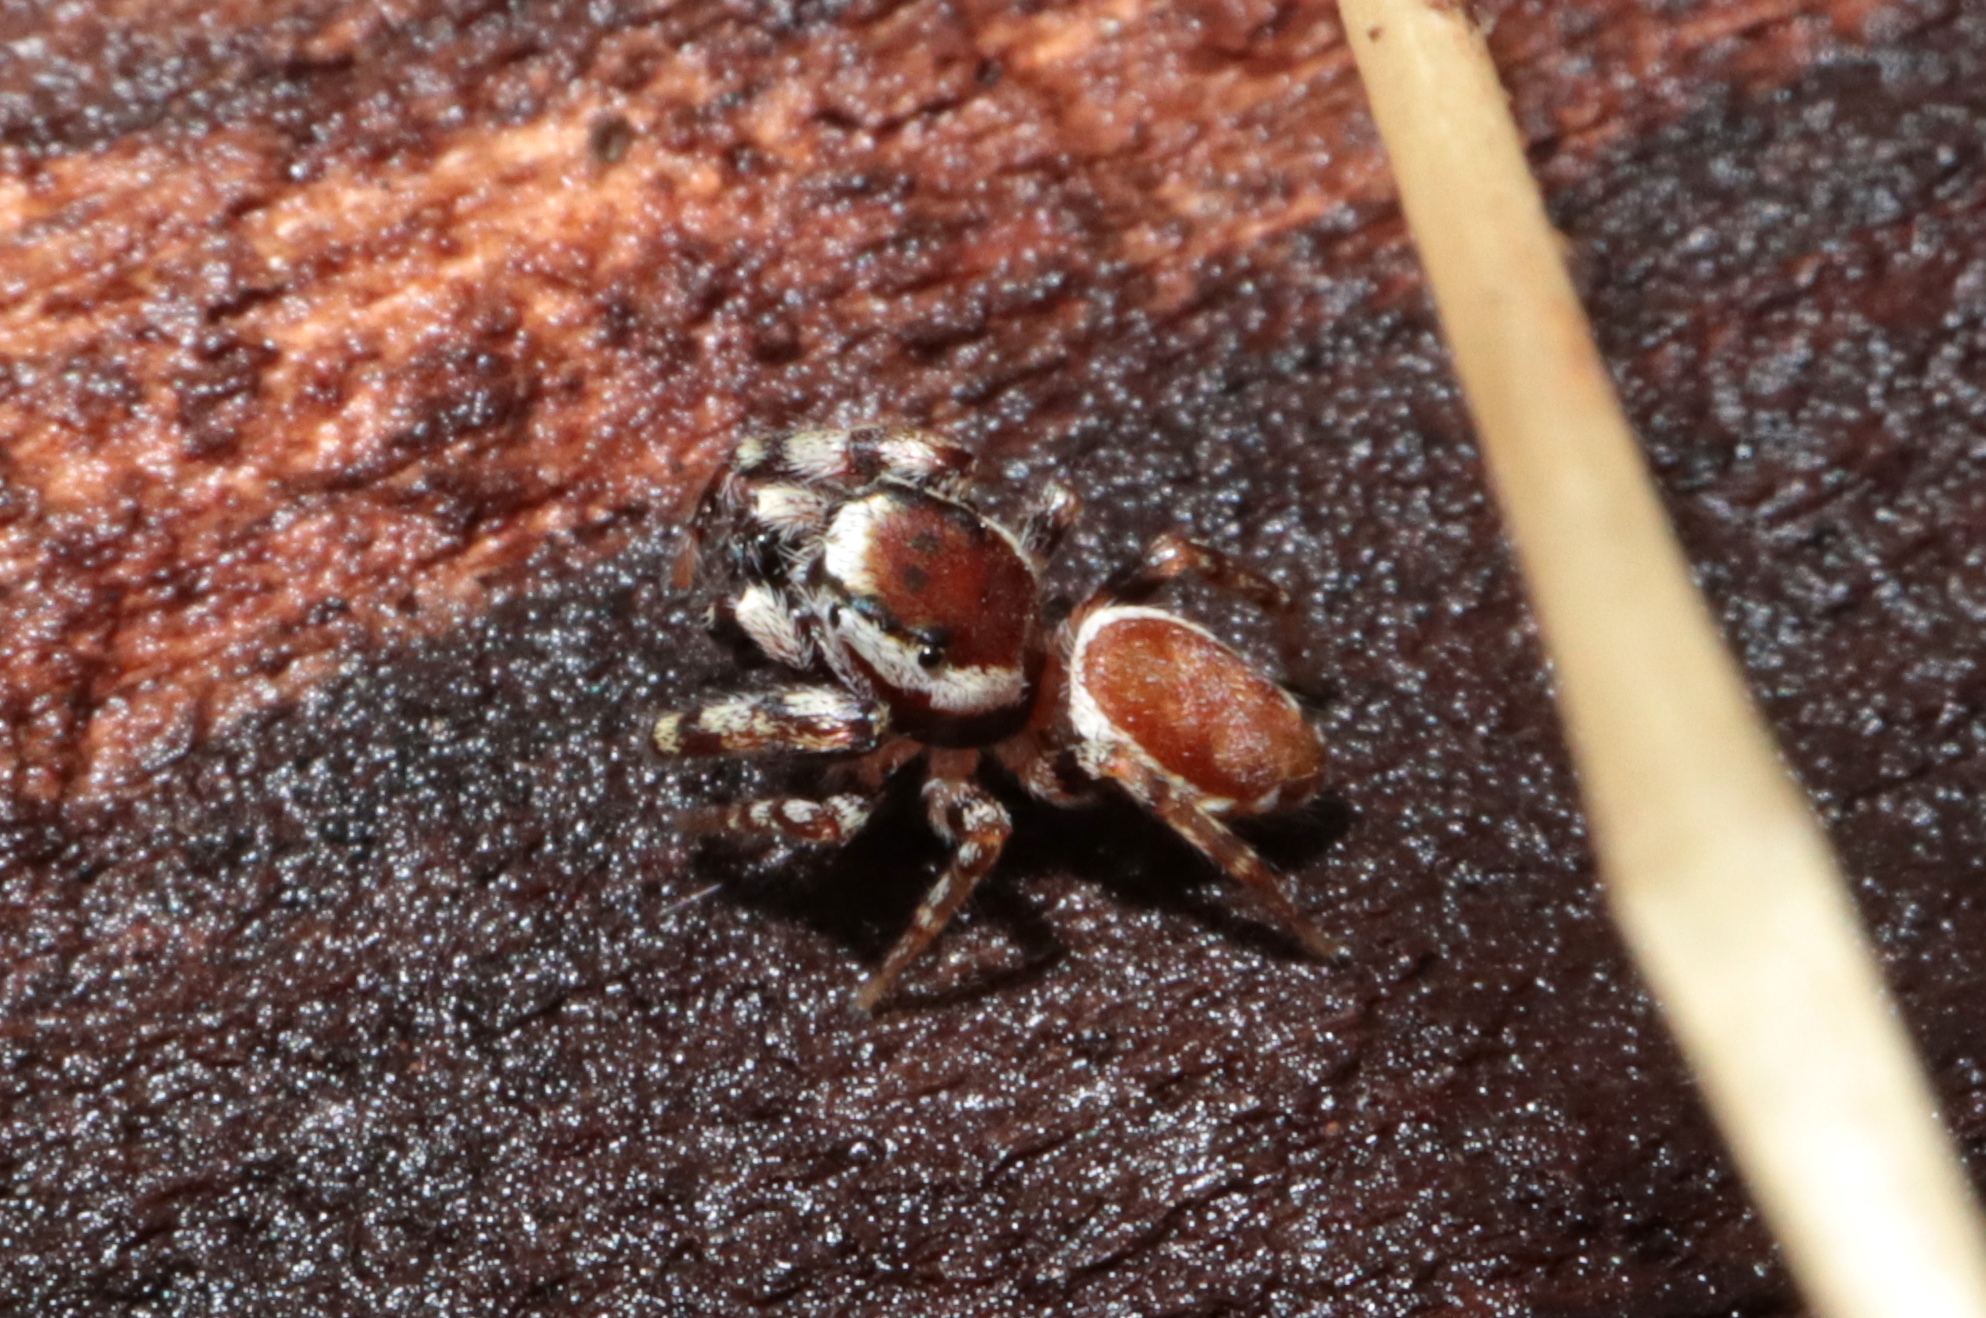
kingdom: Animalia
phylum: Arthropoda
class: Arachnida
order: Araneae
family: Salticidae
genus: Pelegrina
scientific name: Pelegrina proterva
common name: Common white-cheeked jumping spider
